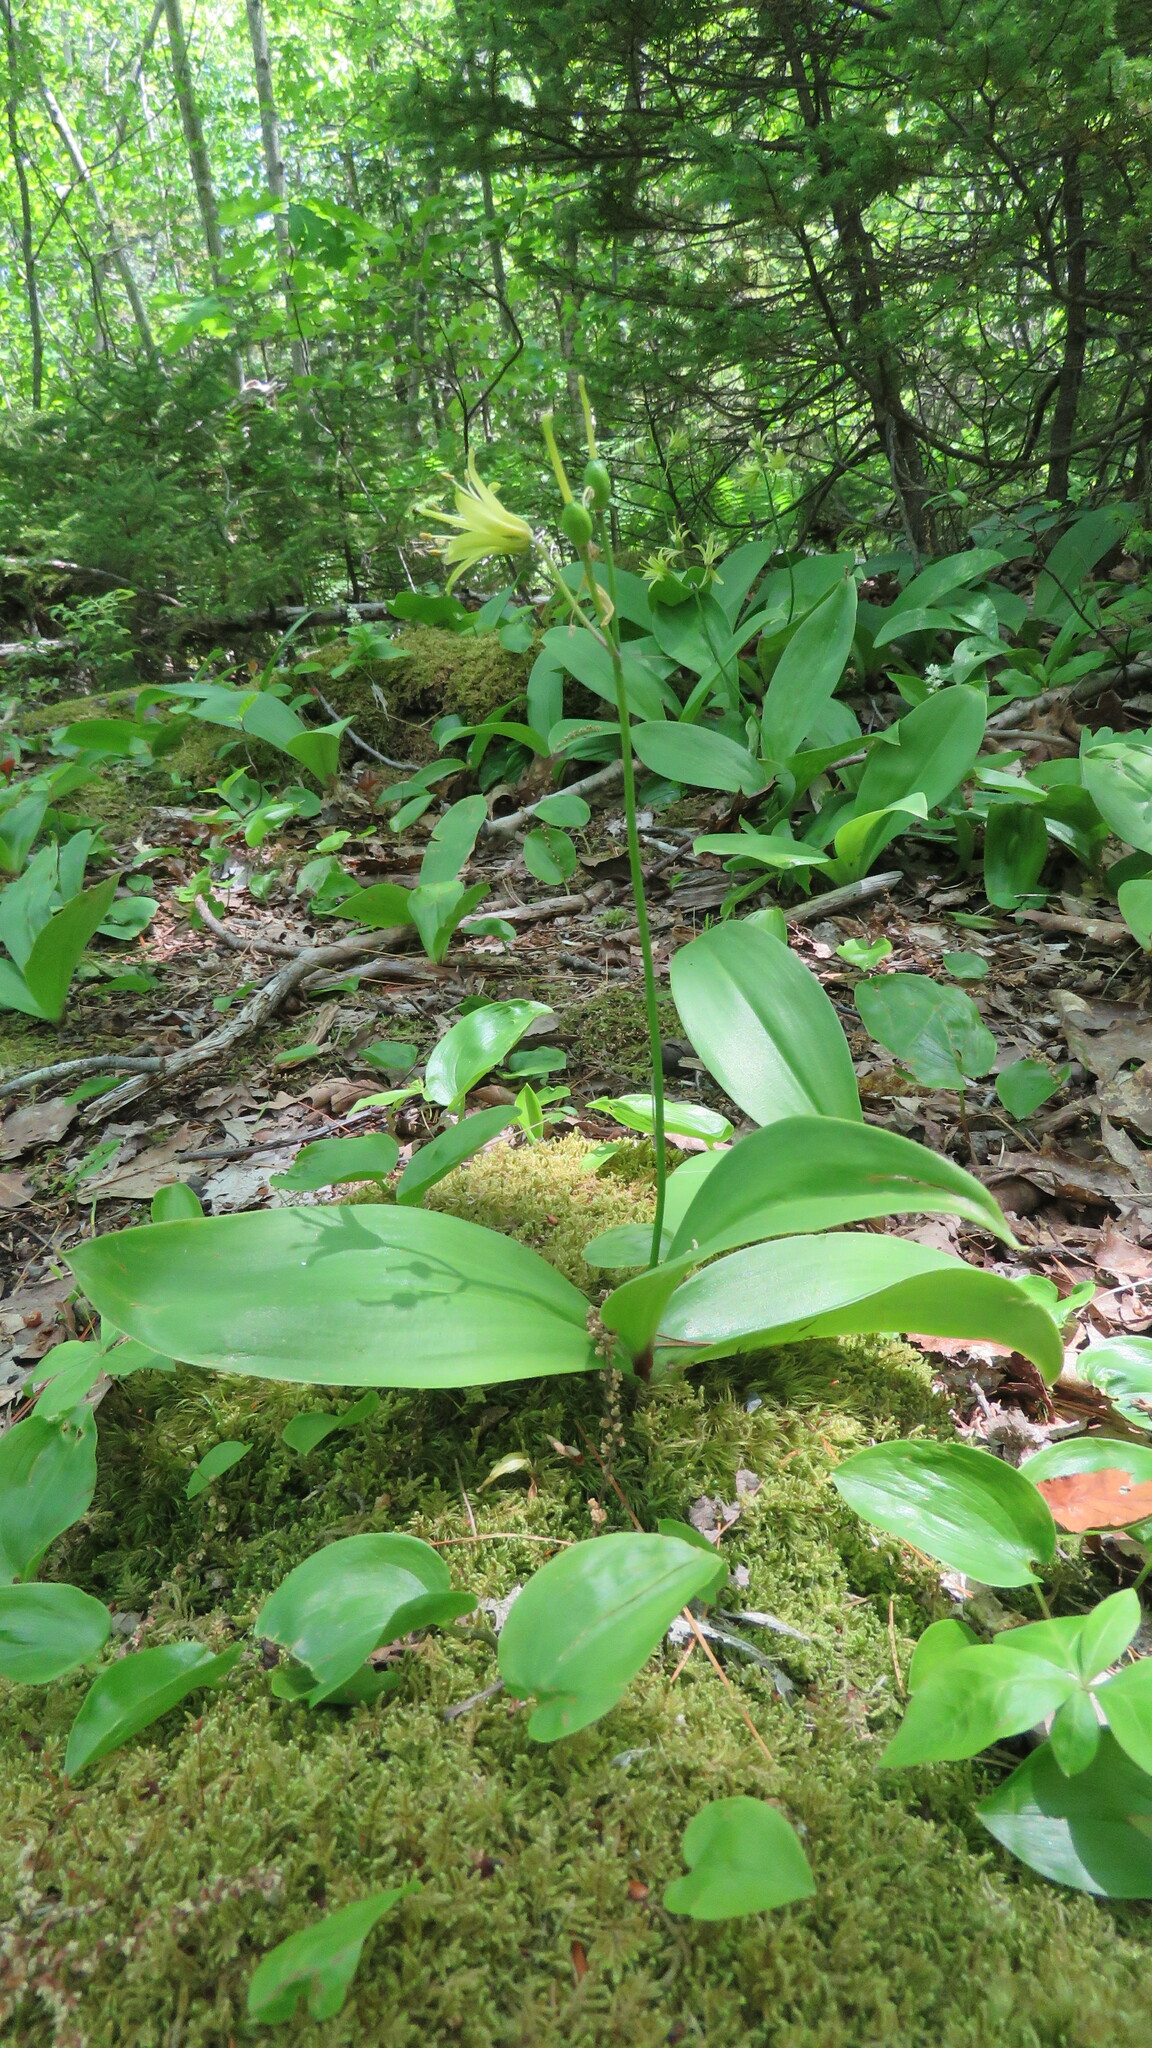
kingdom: Plantae
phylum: Tracheophyta
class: Liliopsida
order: Liliales
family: Liliaceae
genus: Clintonia
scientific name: Clintonia borealis
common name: Yellow clintonia
